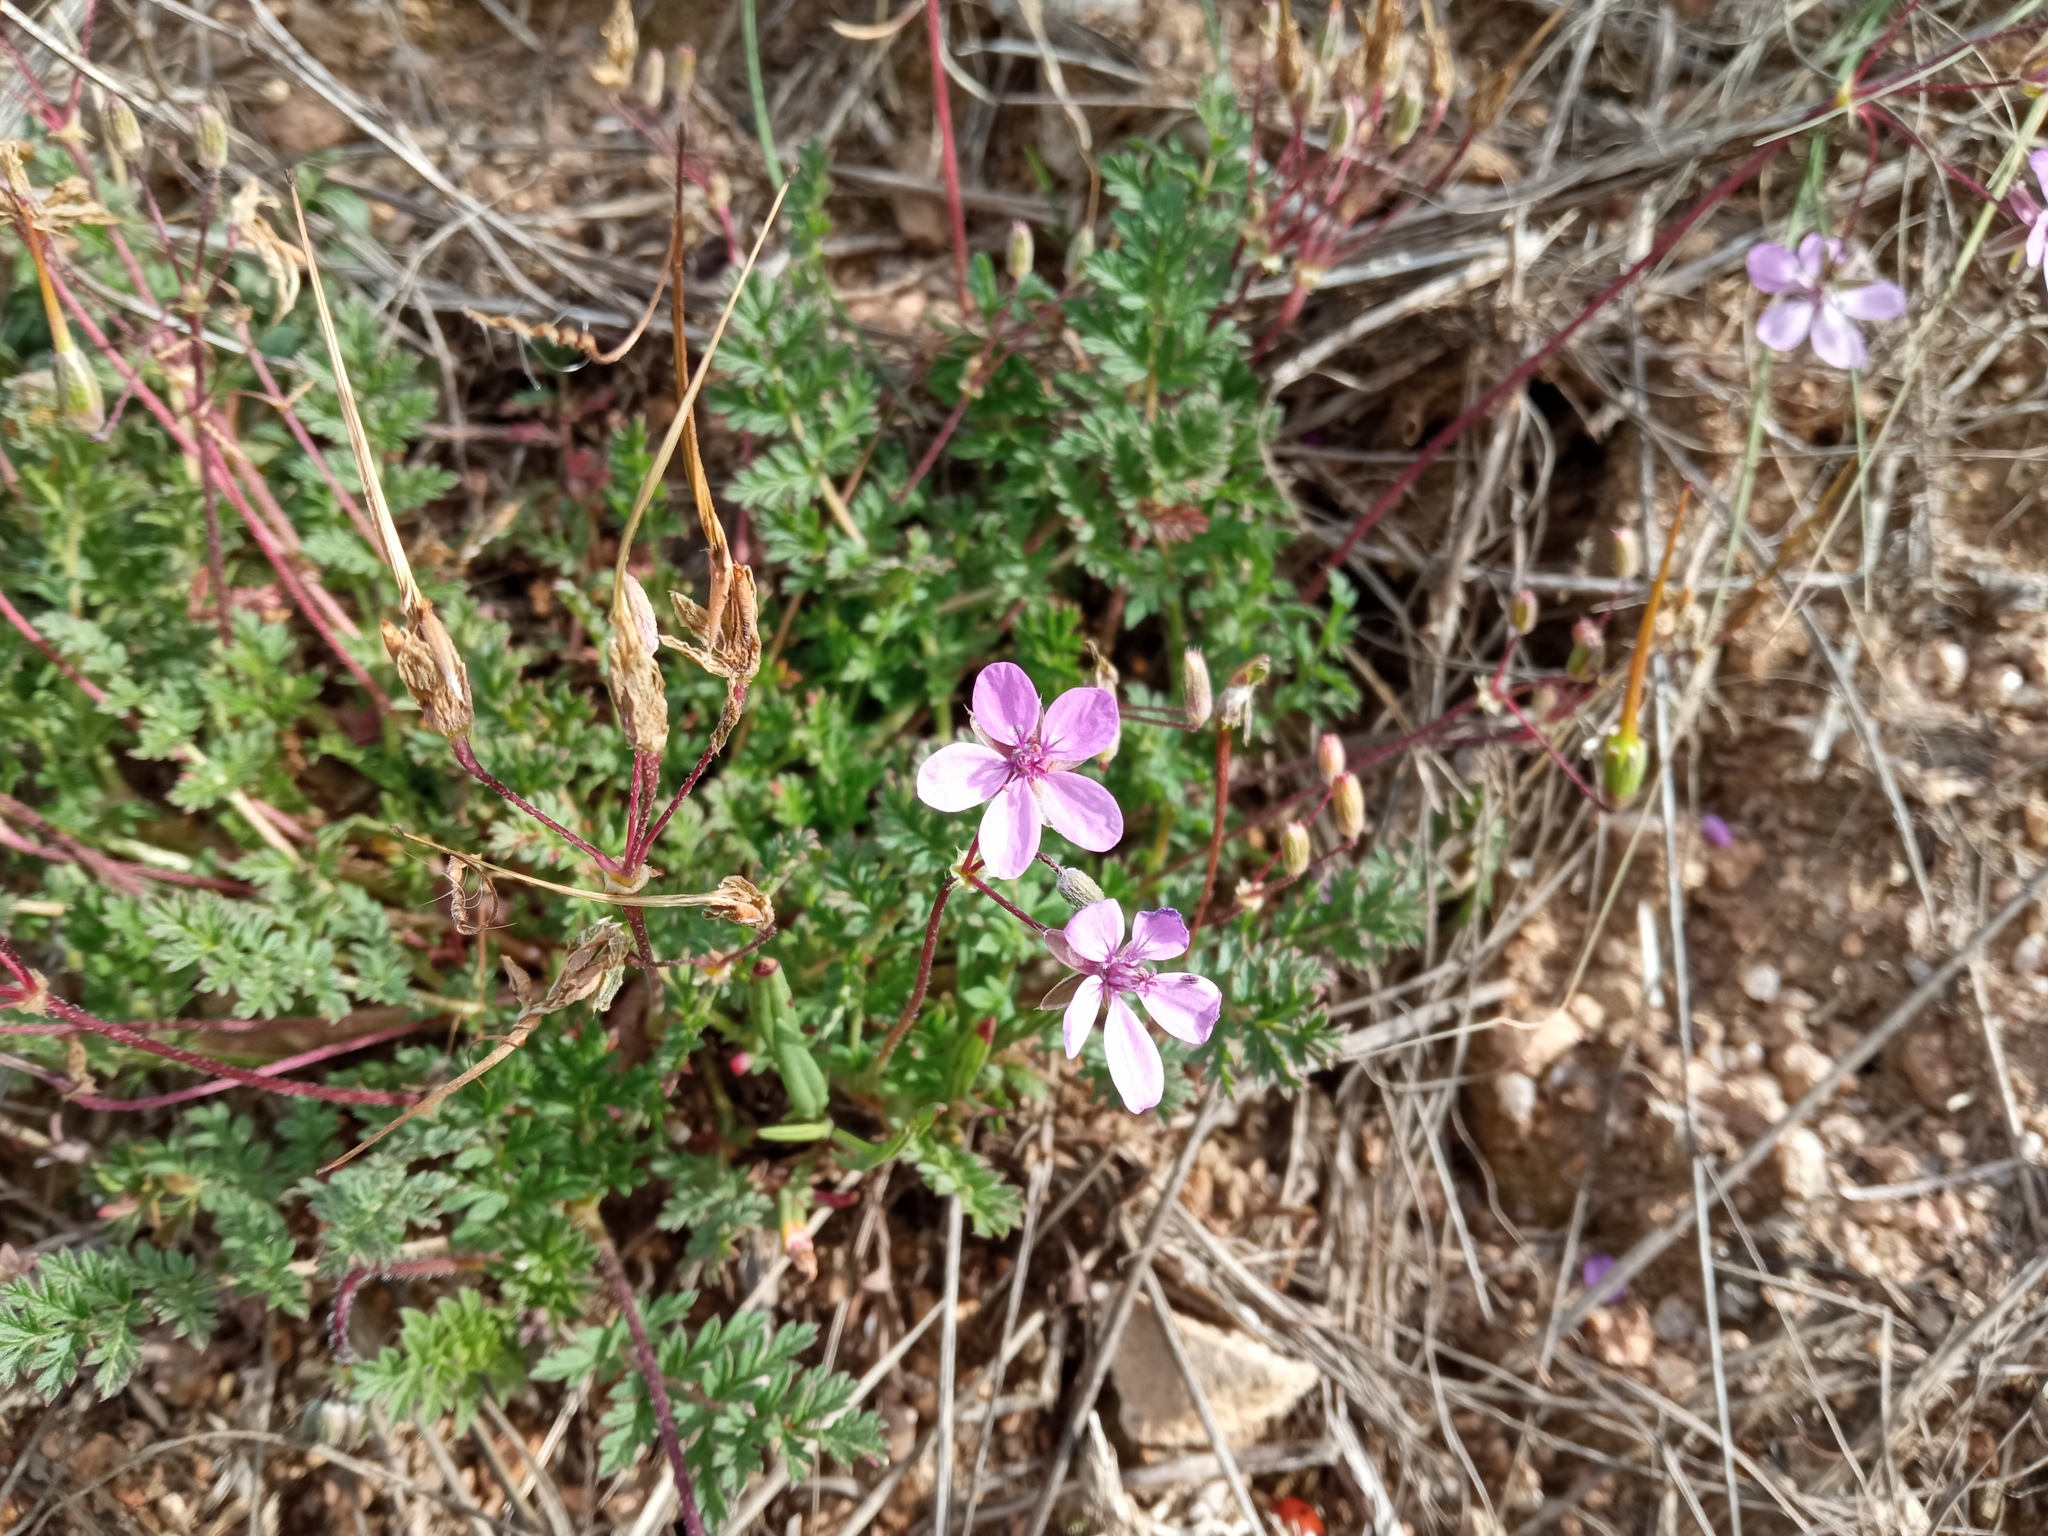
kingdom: Plantae
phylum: Tracheophyta
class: Magnoliopsida
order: Geraniales
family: Geraniaceae
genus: Erodium
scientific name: Erodium cicutarium
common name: Common stork's-bill
